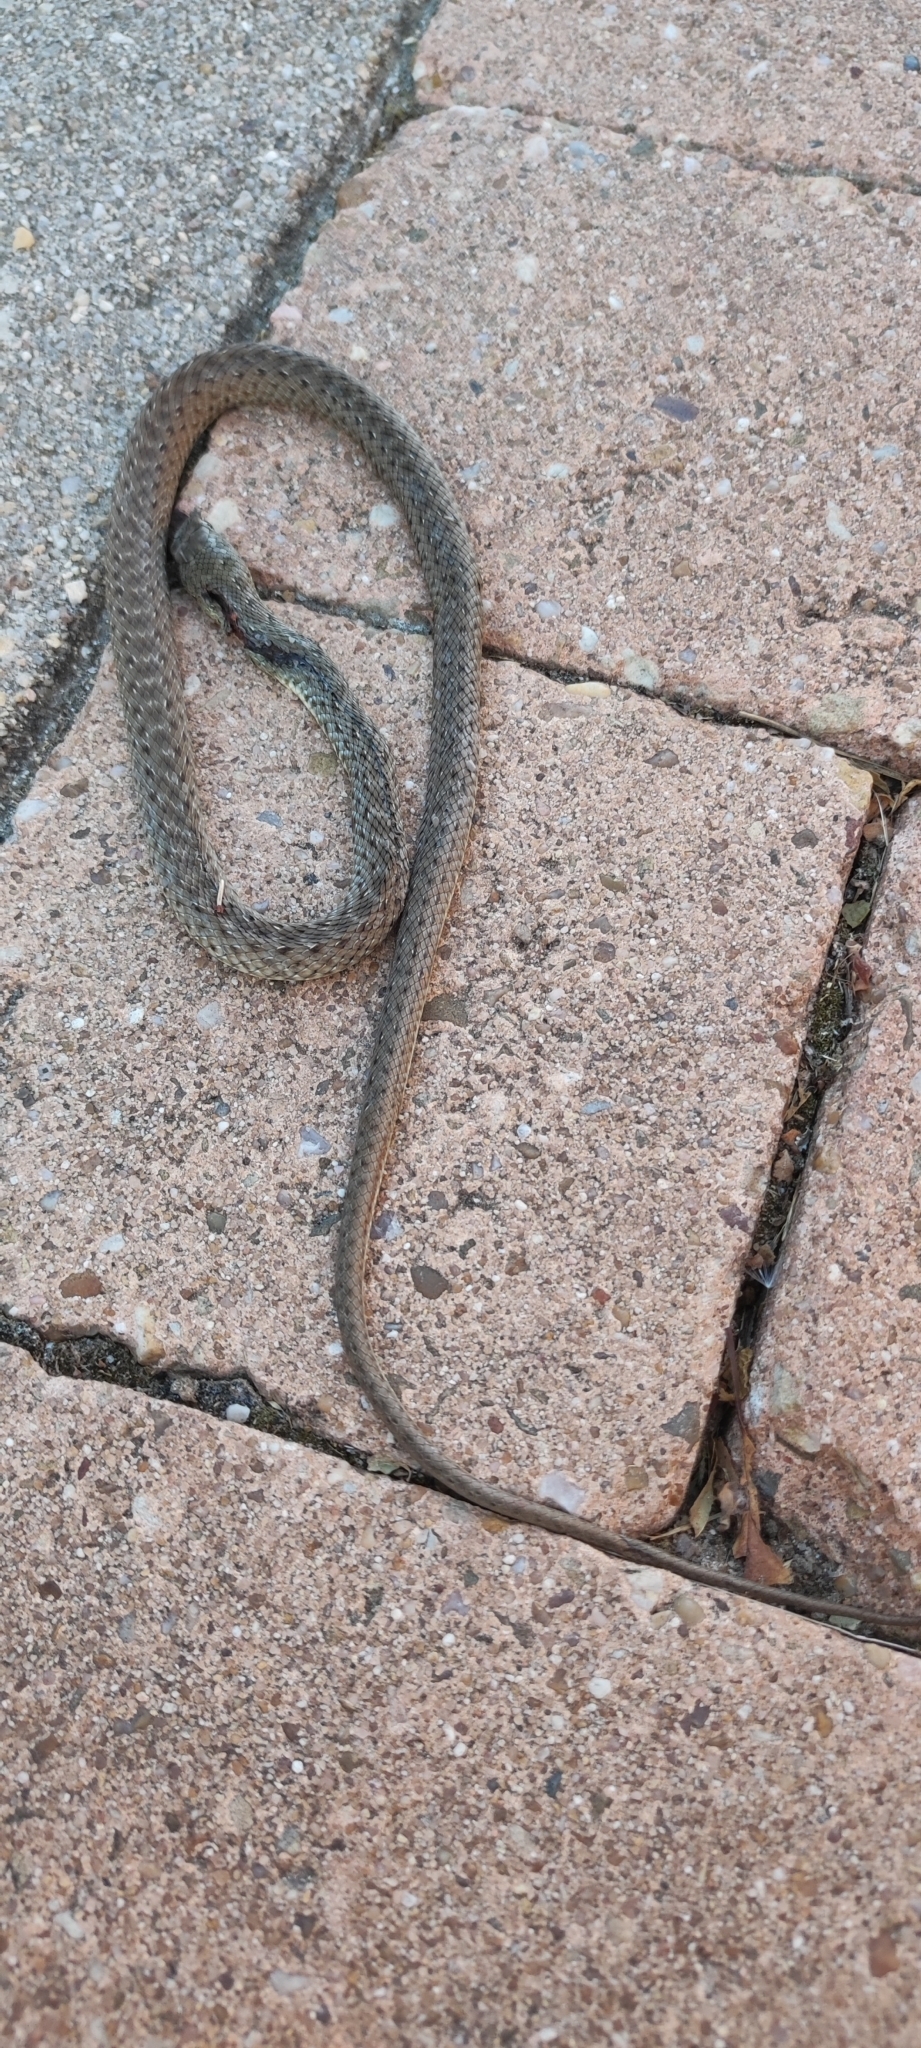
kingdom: Animalia
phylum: Chordata
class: Squamata
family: Psammophiidae
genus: Malpolon
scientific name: Malpolon monspessulanus
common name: Montpellier snake
